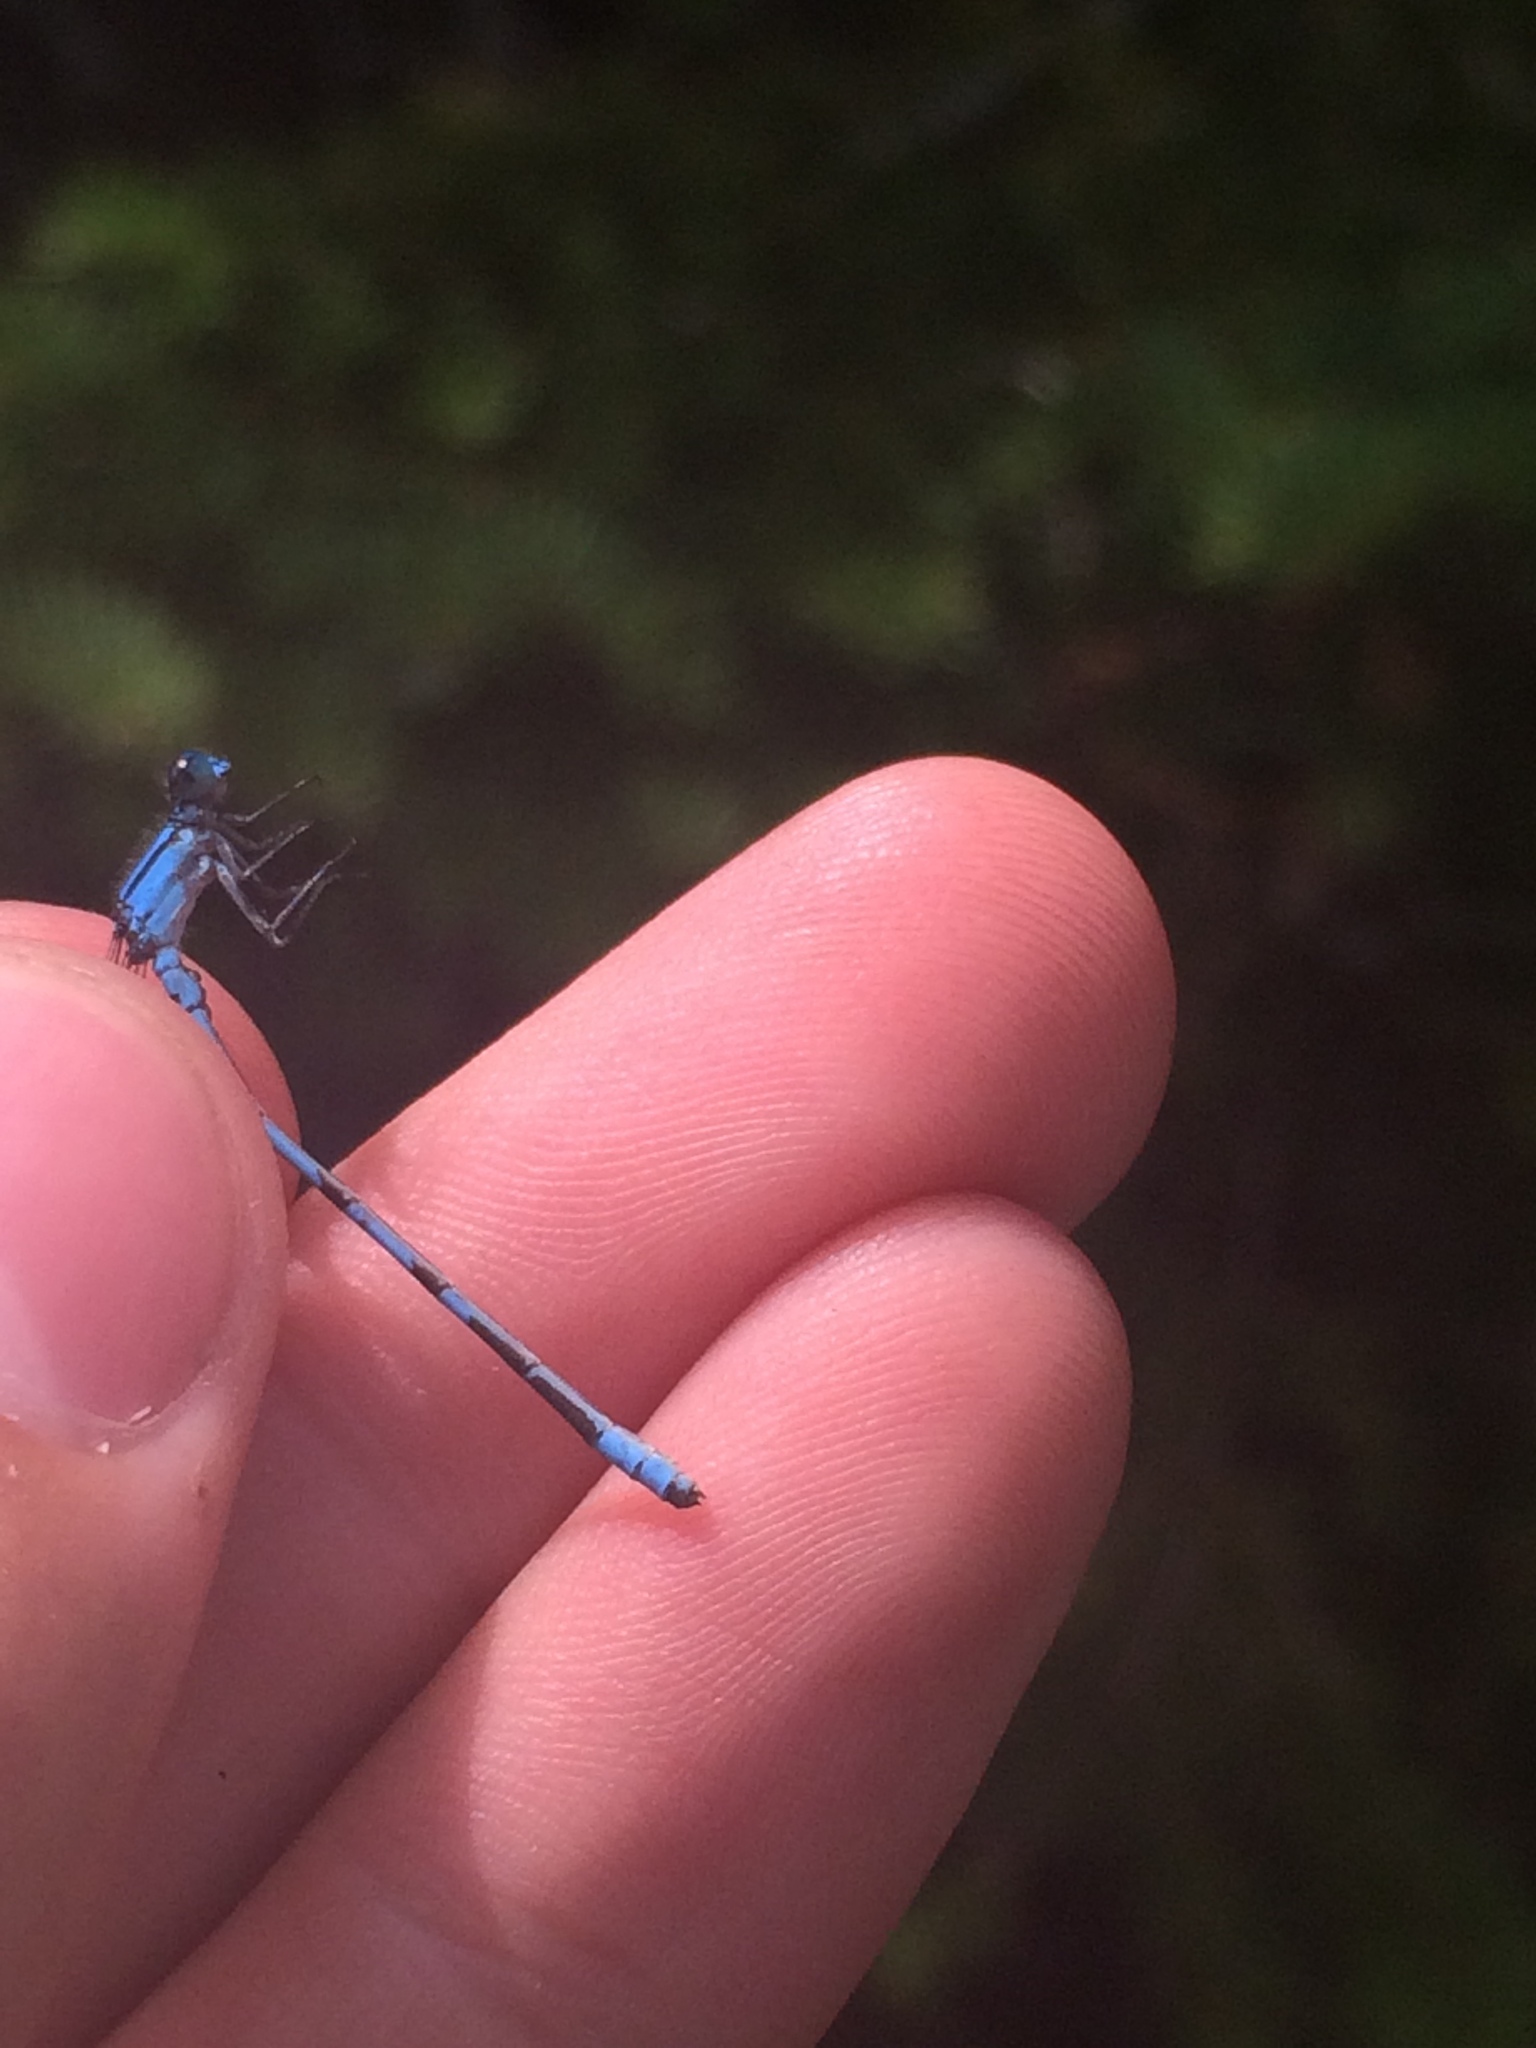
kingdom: Animalia
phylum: Arthropoda
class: Insecta
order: Odonata
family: Coenagrionidae
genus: Enallagma
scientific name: Enallagma hageni
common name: Hagen's bluet
